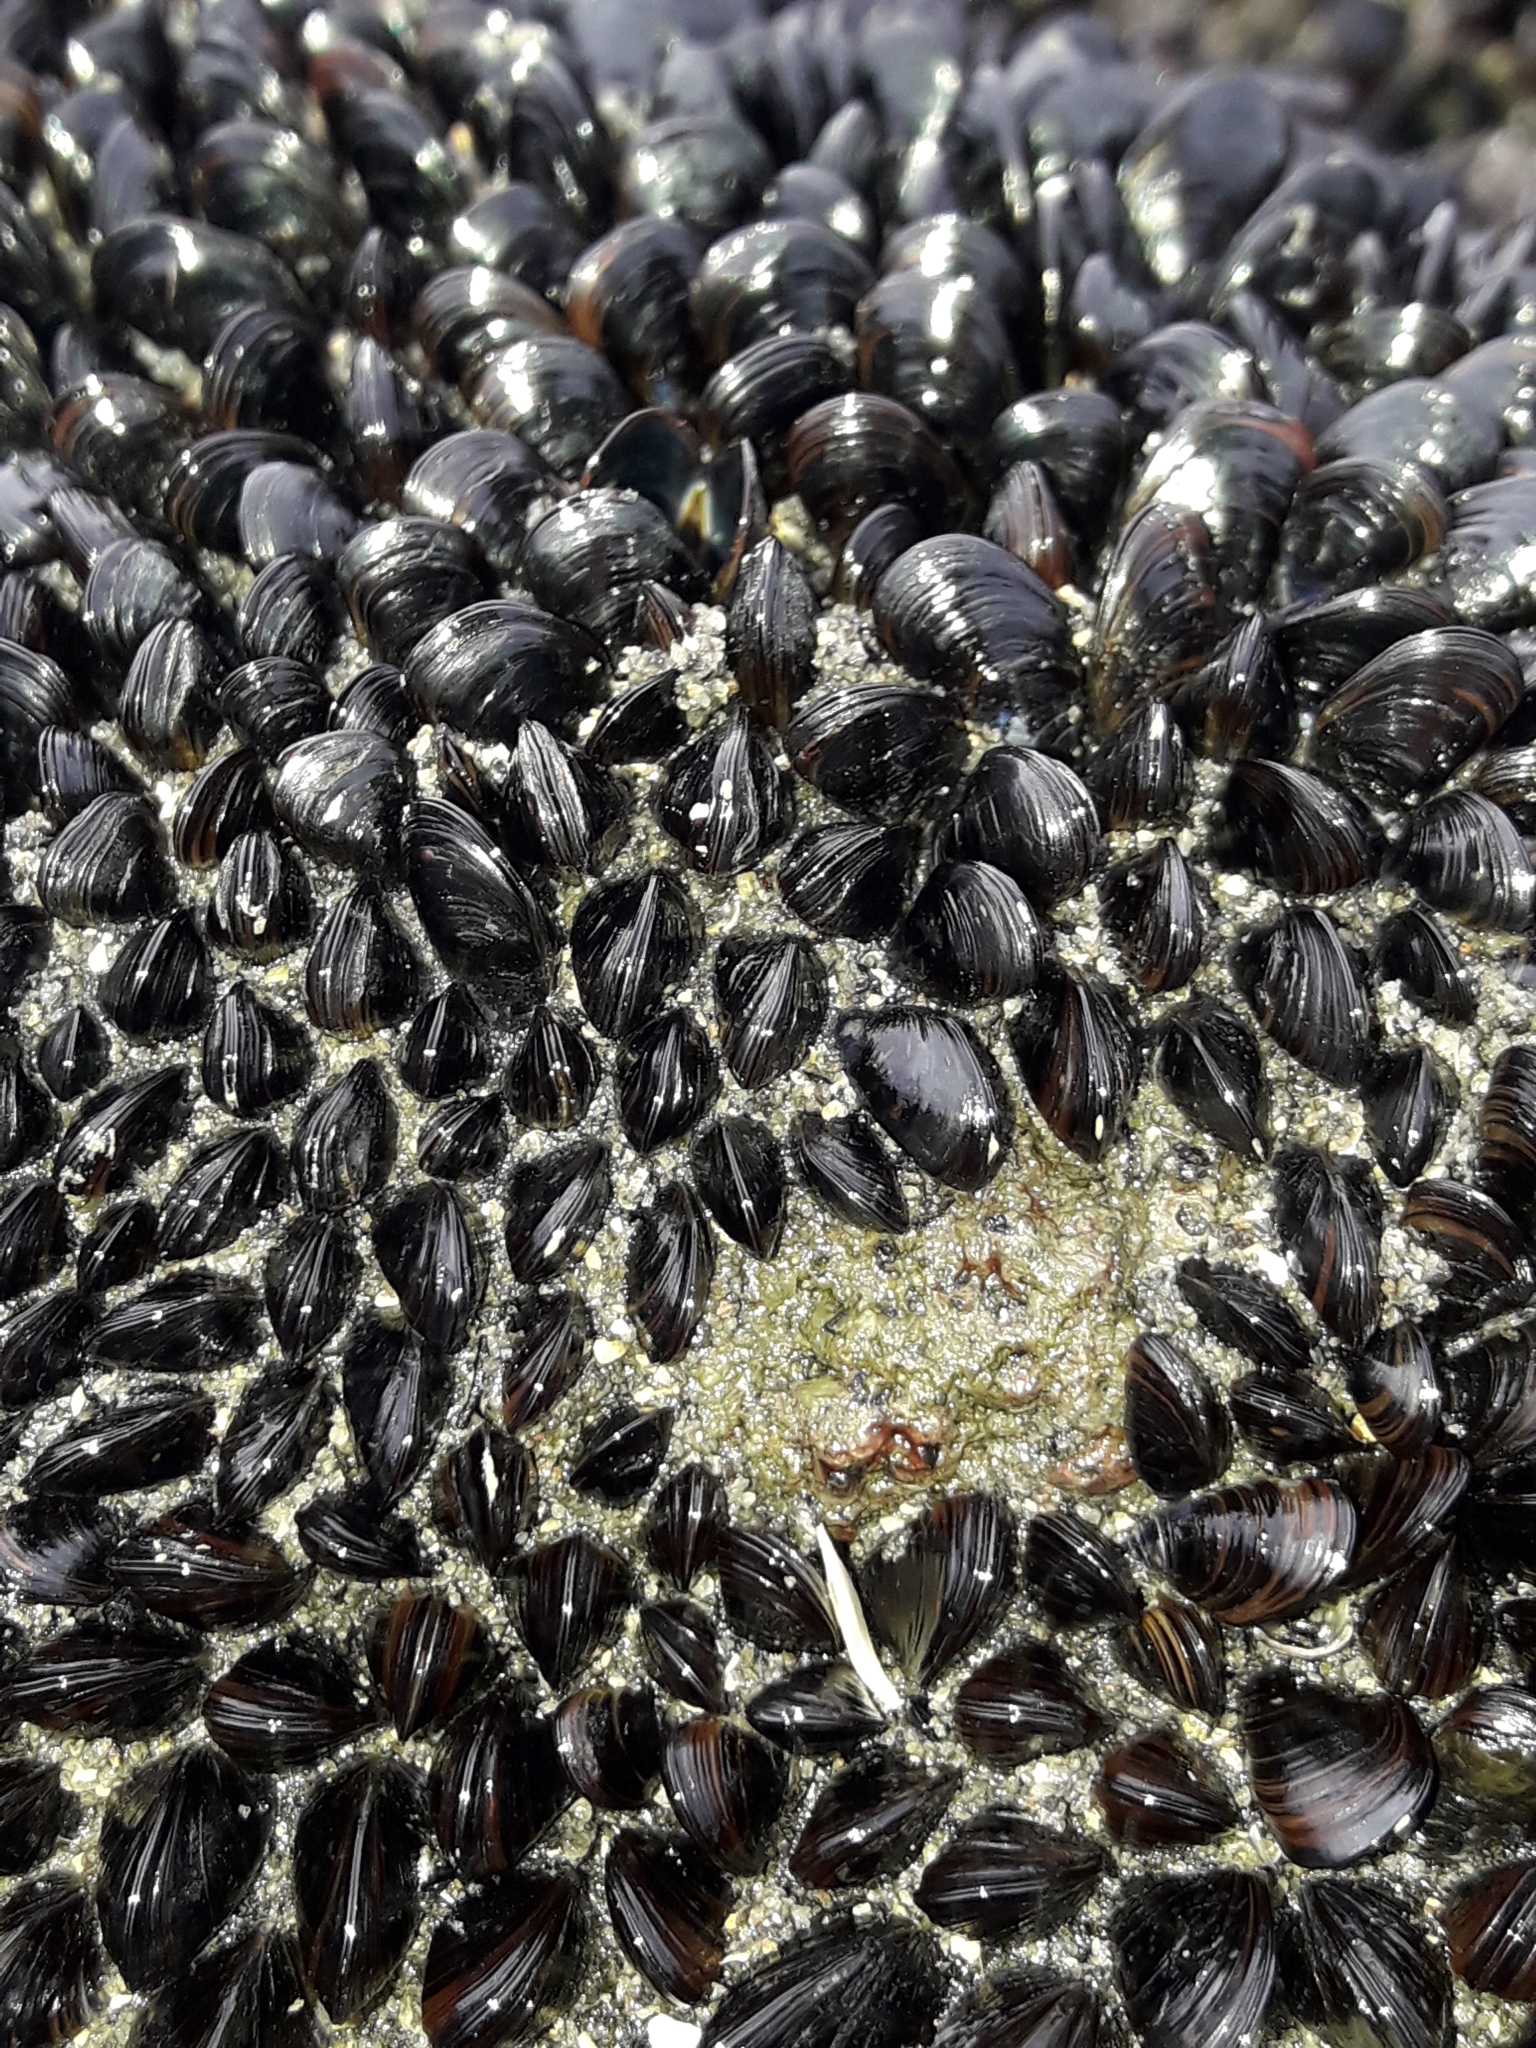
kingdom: Animalia
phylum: Mollusca
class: Bivalvia
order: Mytilida
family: Mytilidae
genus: Xenostrobus
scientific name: Xenostrobus neozelanicus
